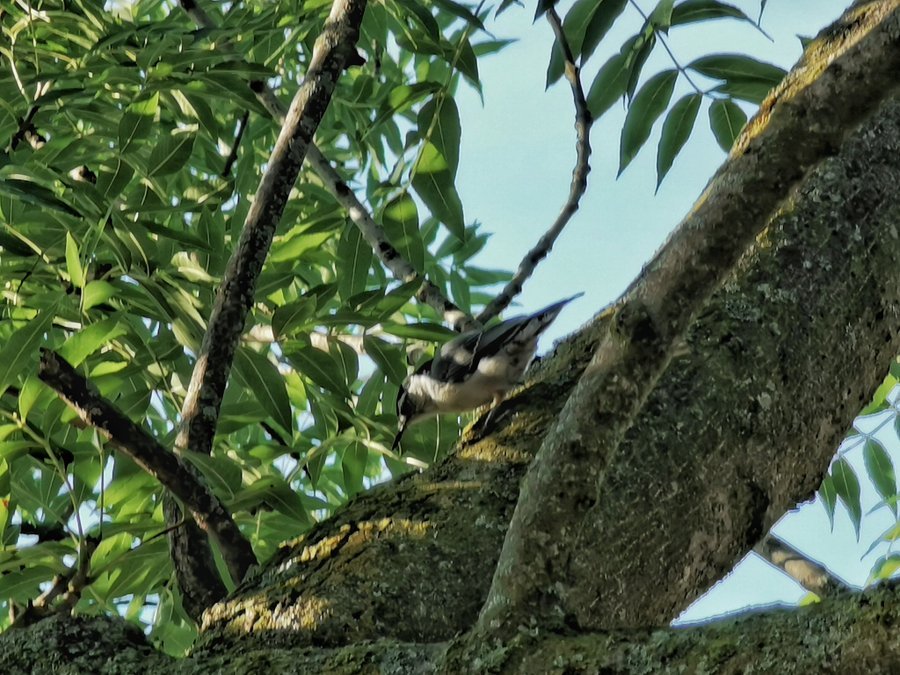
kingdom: Animalia
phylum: Chordata
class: Aves
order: Passeriformes
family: Sittidae
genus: Sitta
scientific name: Sitta carolinensis
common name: White-breasted nuthatch
